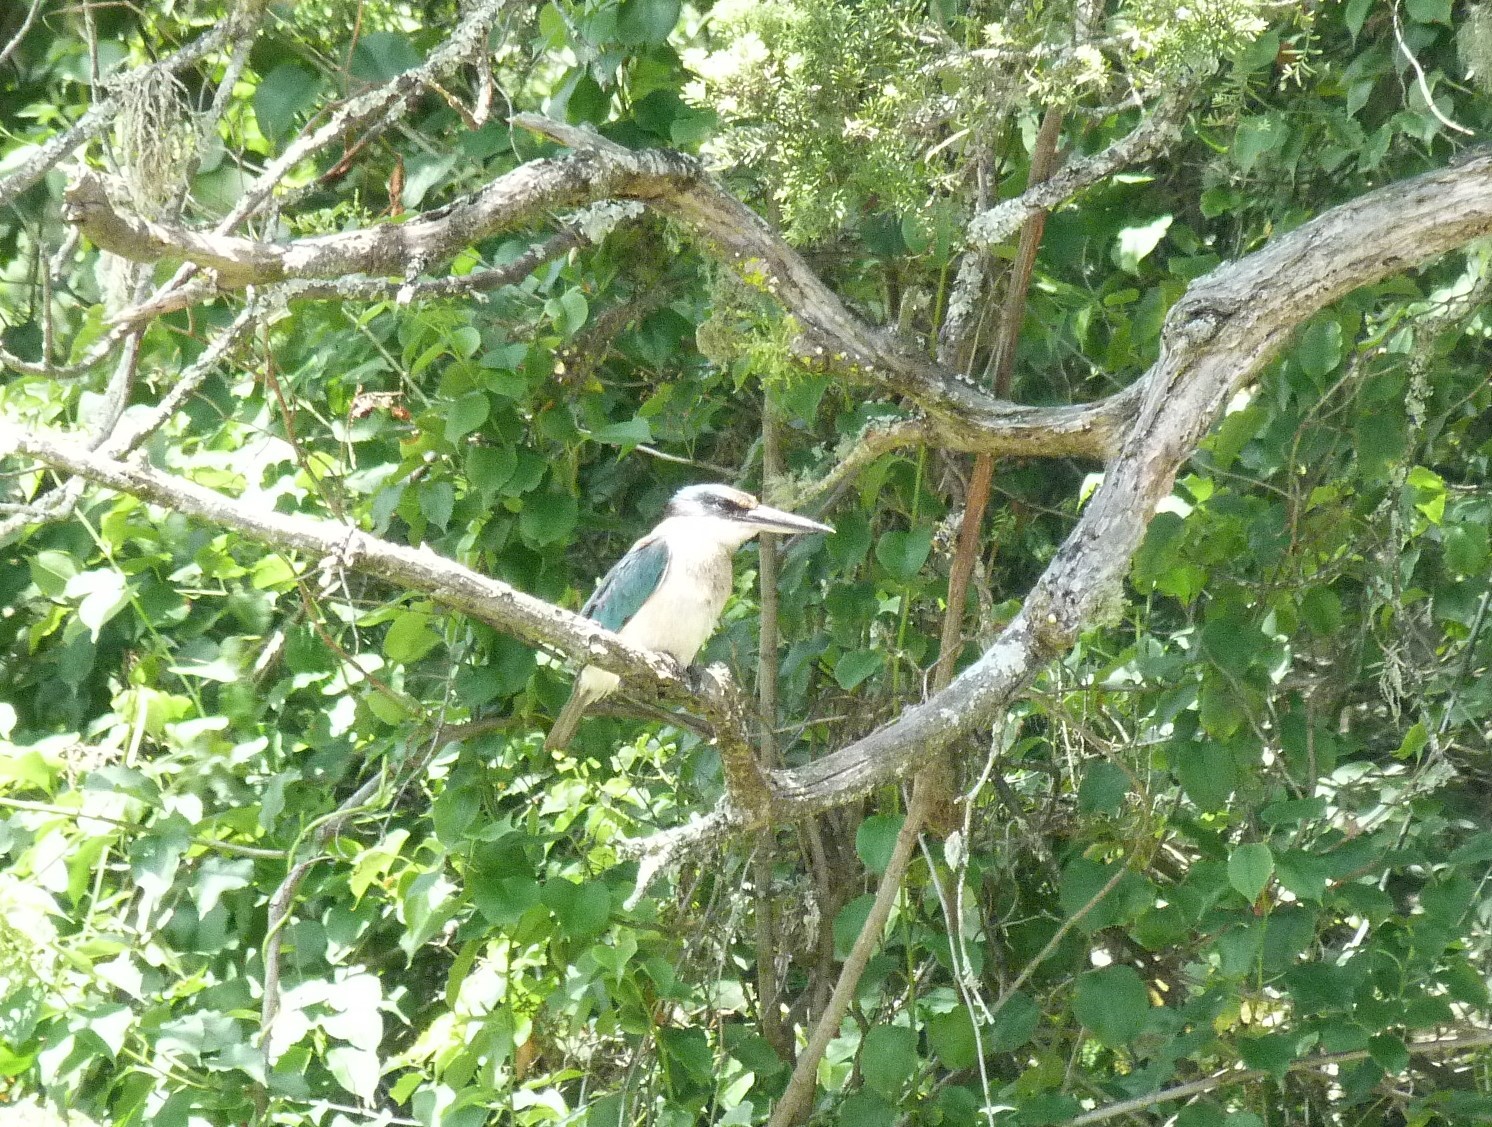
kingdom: Animalia
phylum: Chordata
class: Aves
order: Coraciiformes
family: Alcedinidae
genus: Todiramphus
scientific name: Todiramphus sanctus
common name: Sacred kingfisher
